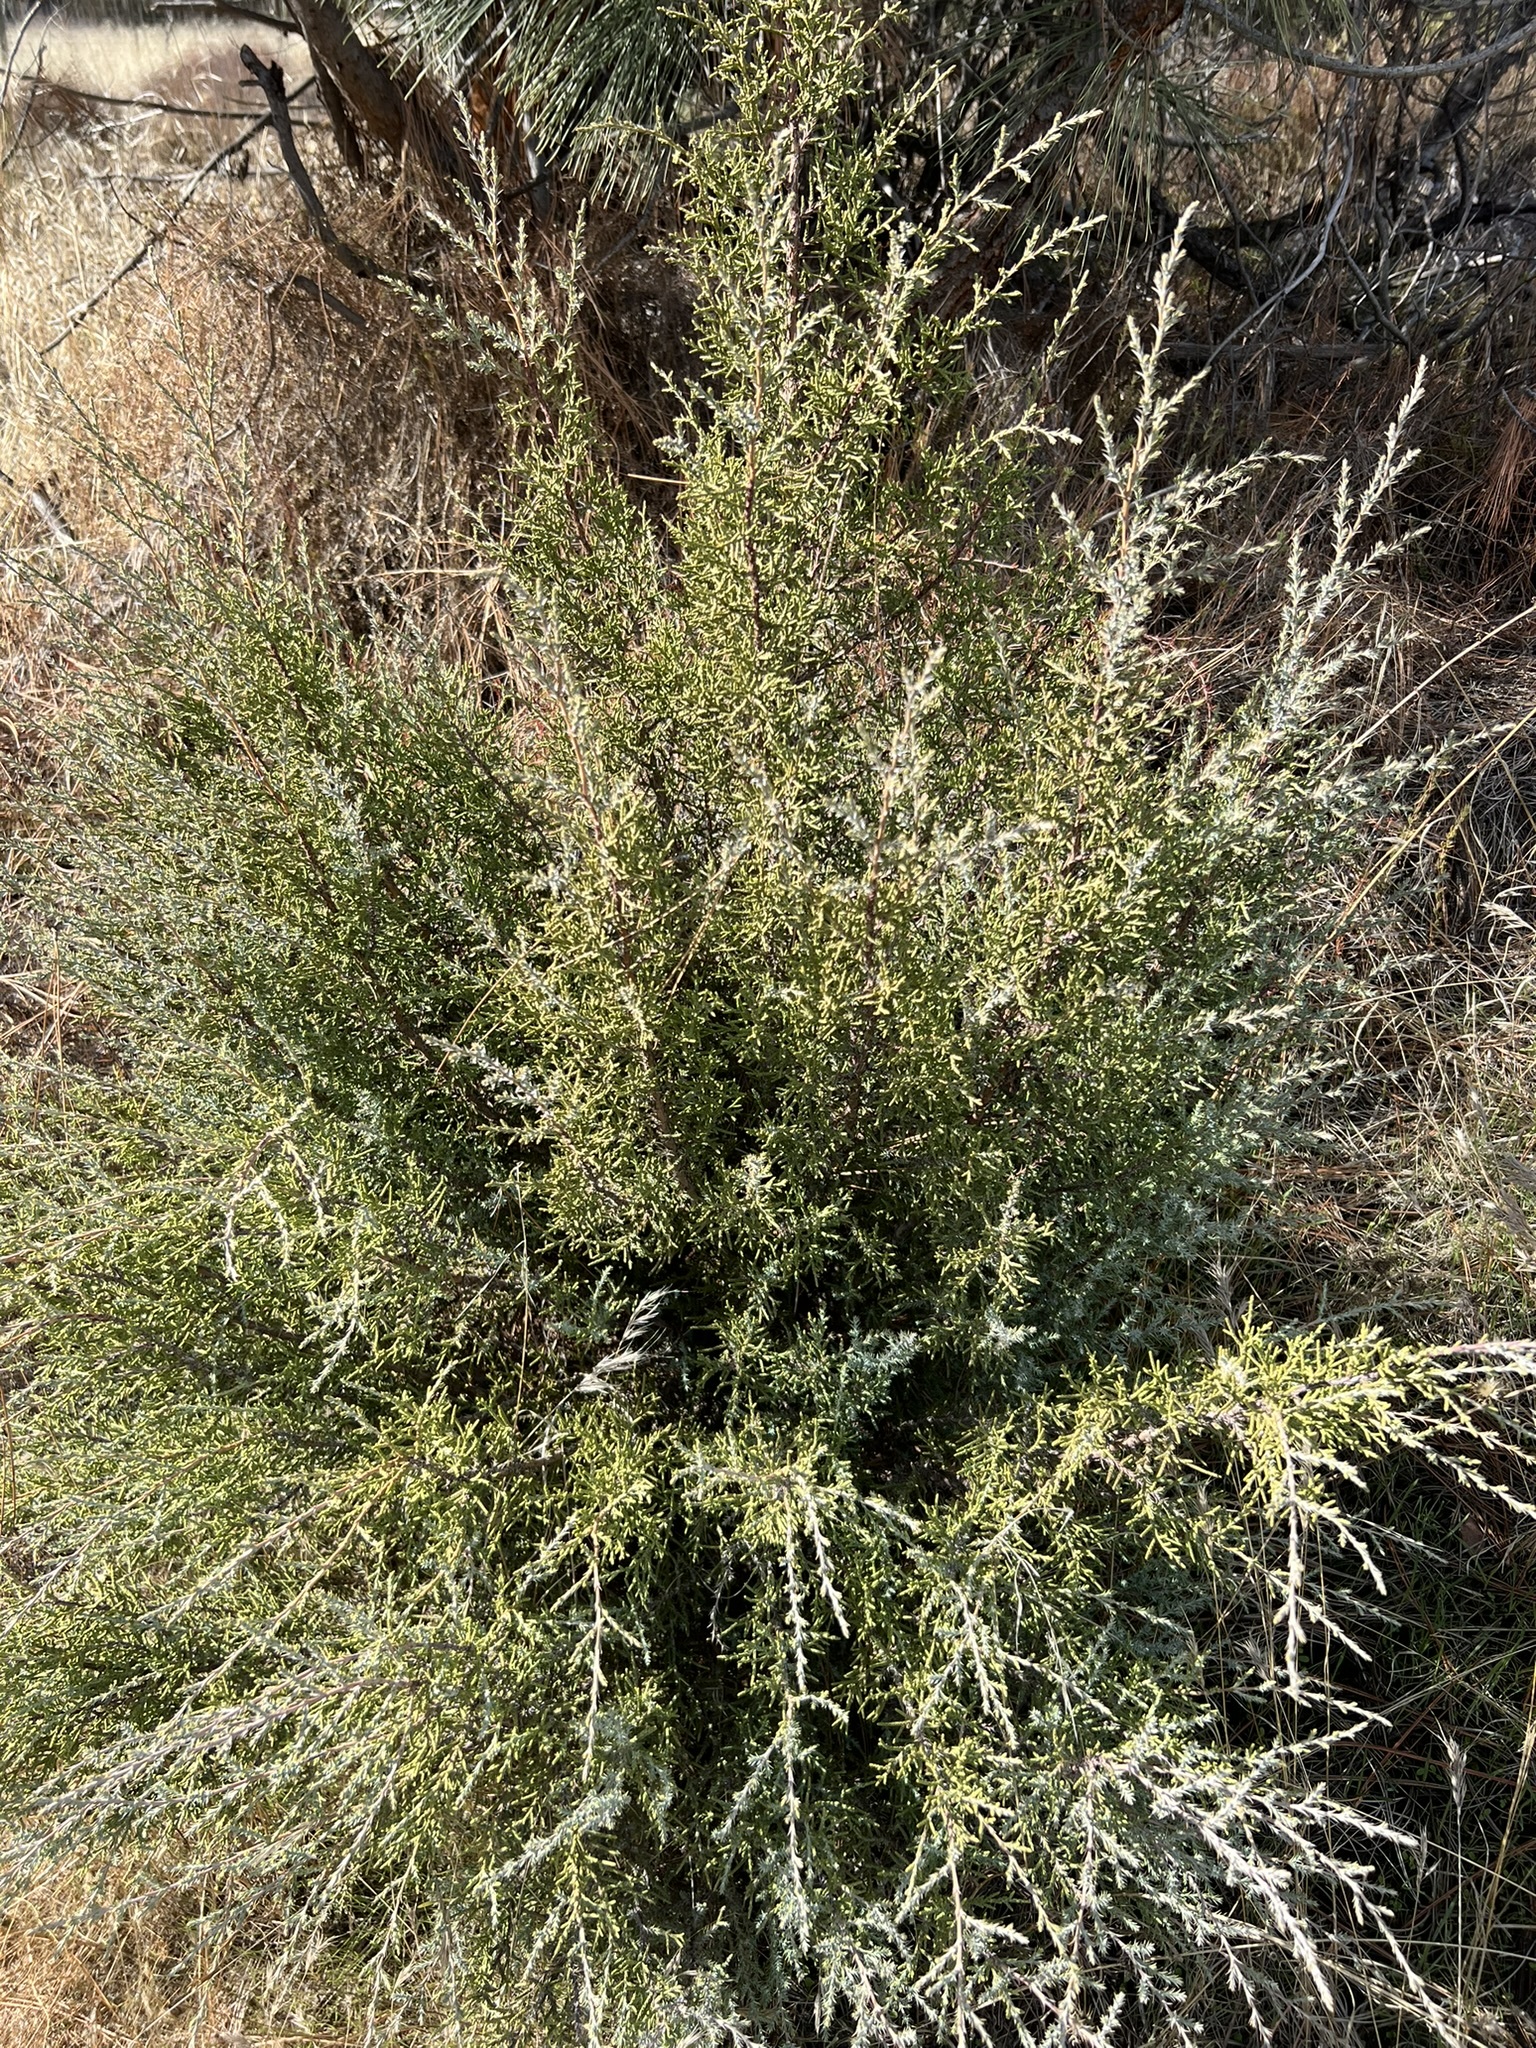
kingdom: Plantae
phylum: Tracheophyta
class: Pinopsida
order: Pinales
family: Cupressaceae
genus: Juniperus
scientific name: Juniperus californica
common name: California juniper
